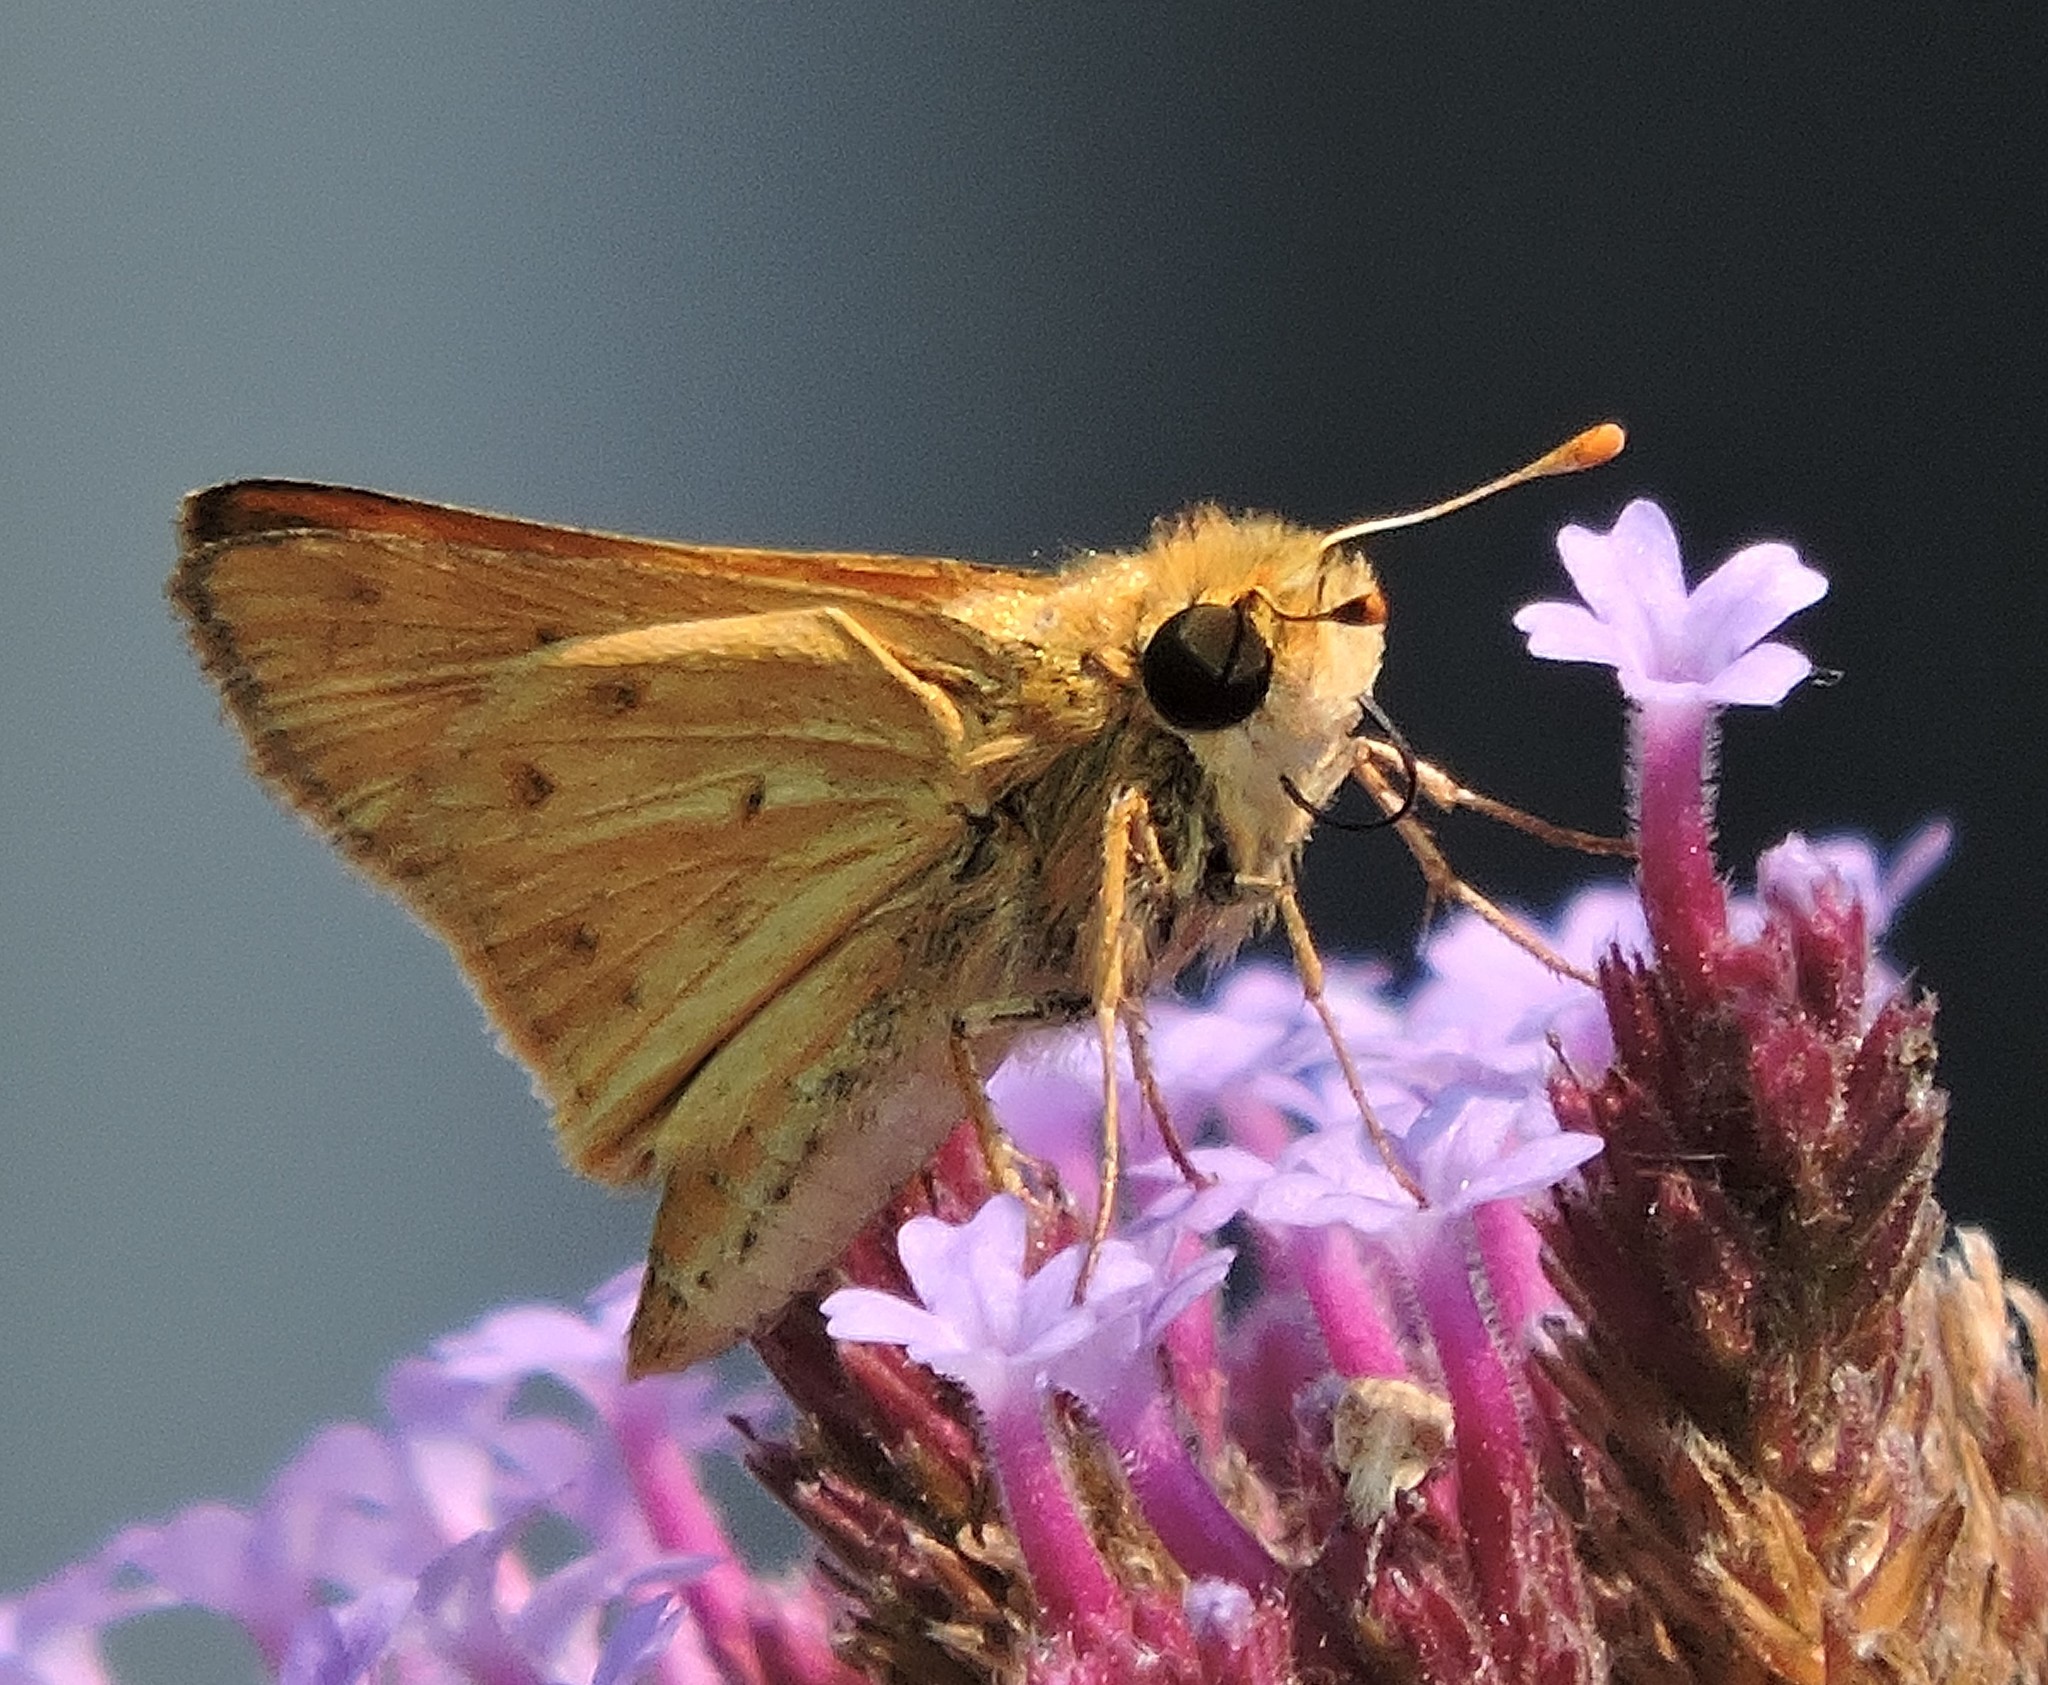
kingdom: Animalia
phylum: Arthropoda
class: Insecta
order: Lepidoptera
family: Hesperiidae
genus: Hylephila
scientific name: Hylephila phyleus
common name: Fiery skipper
